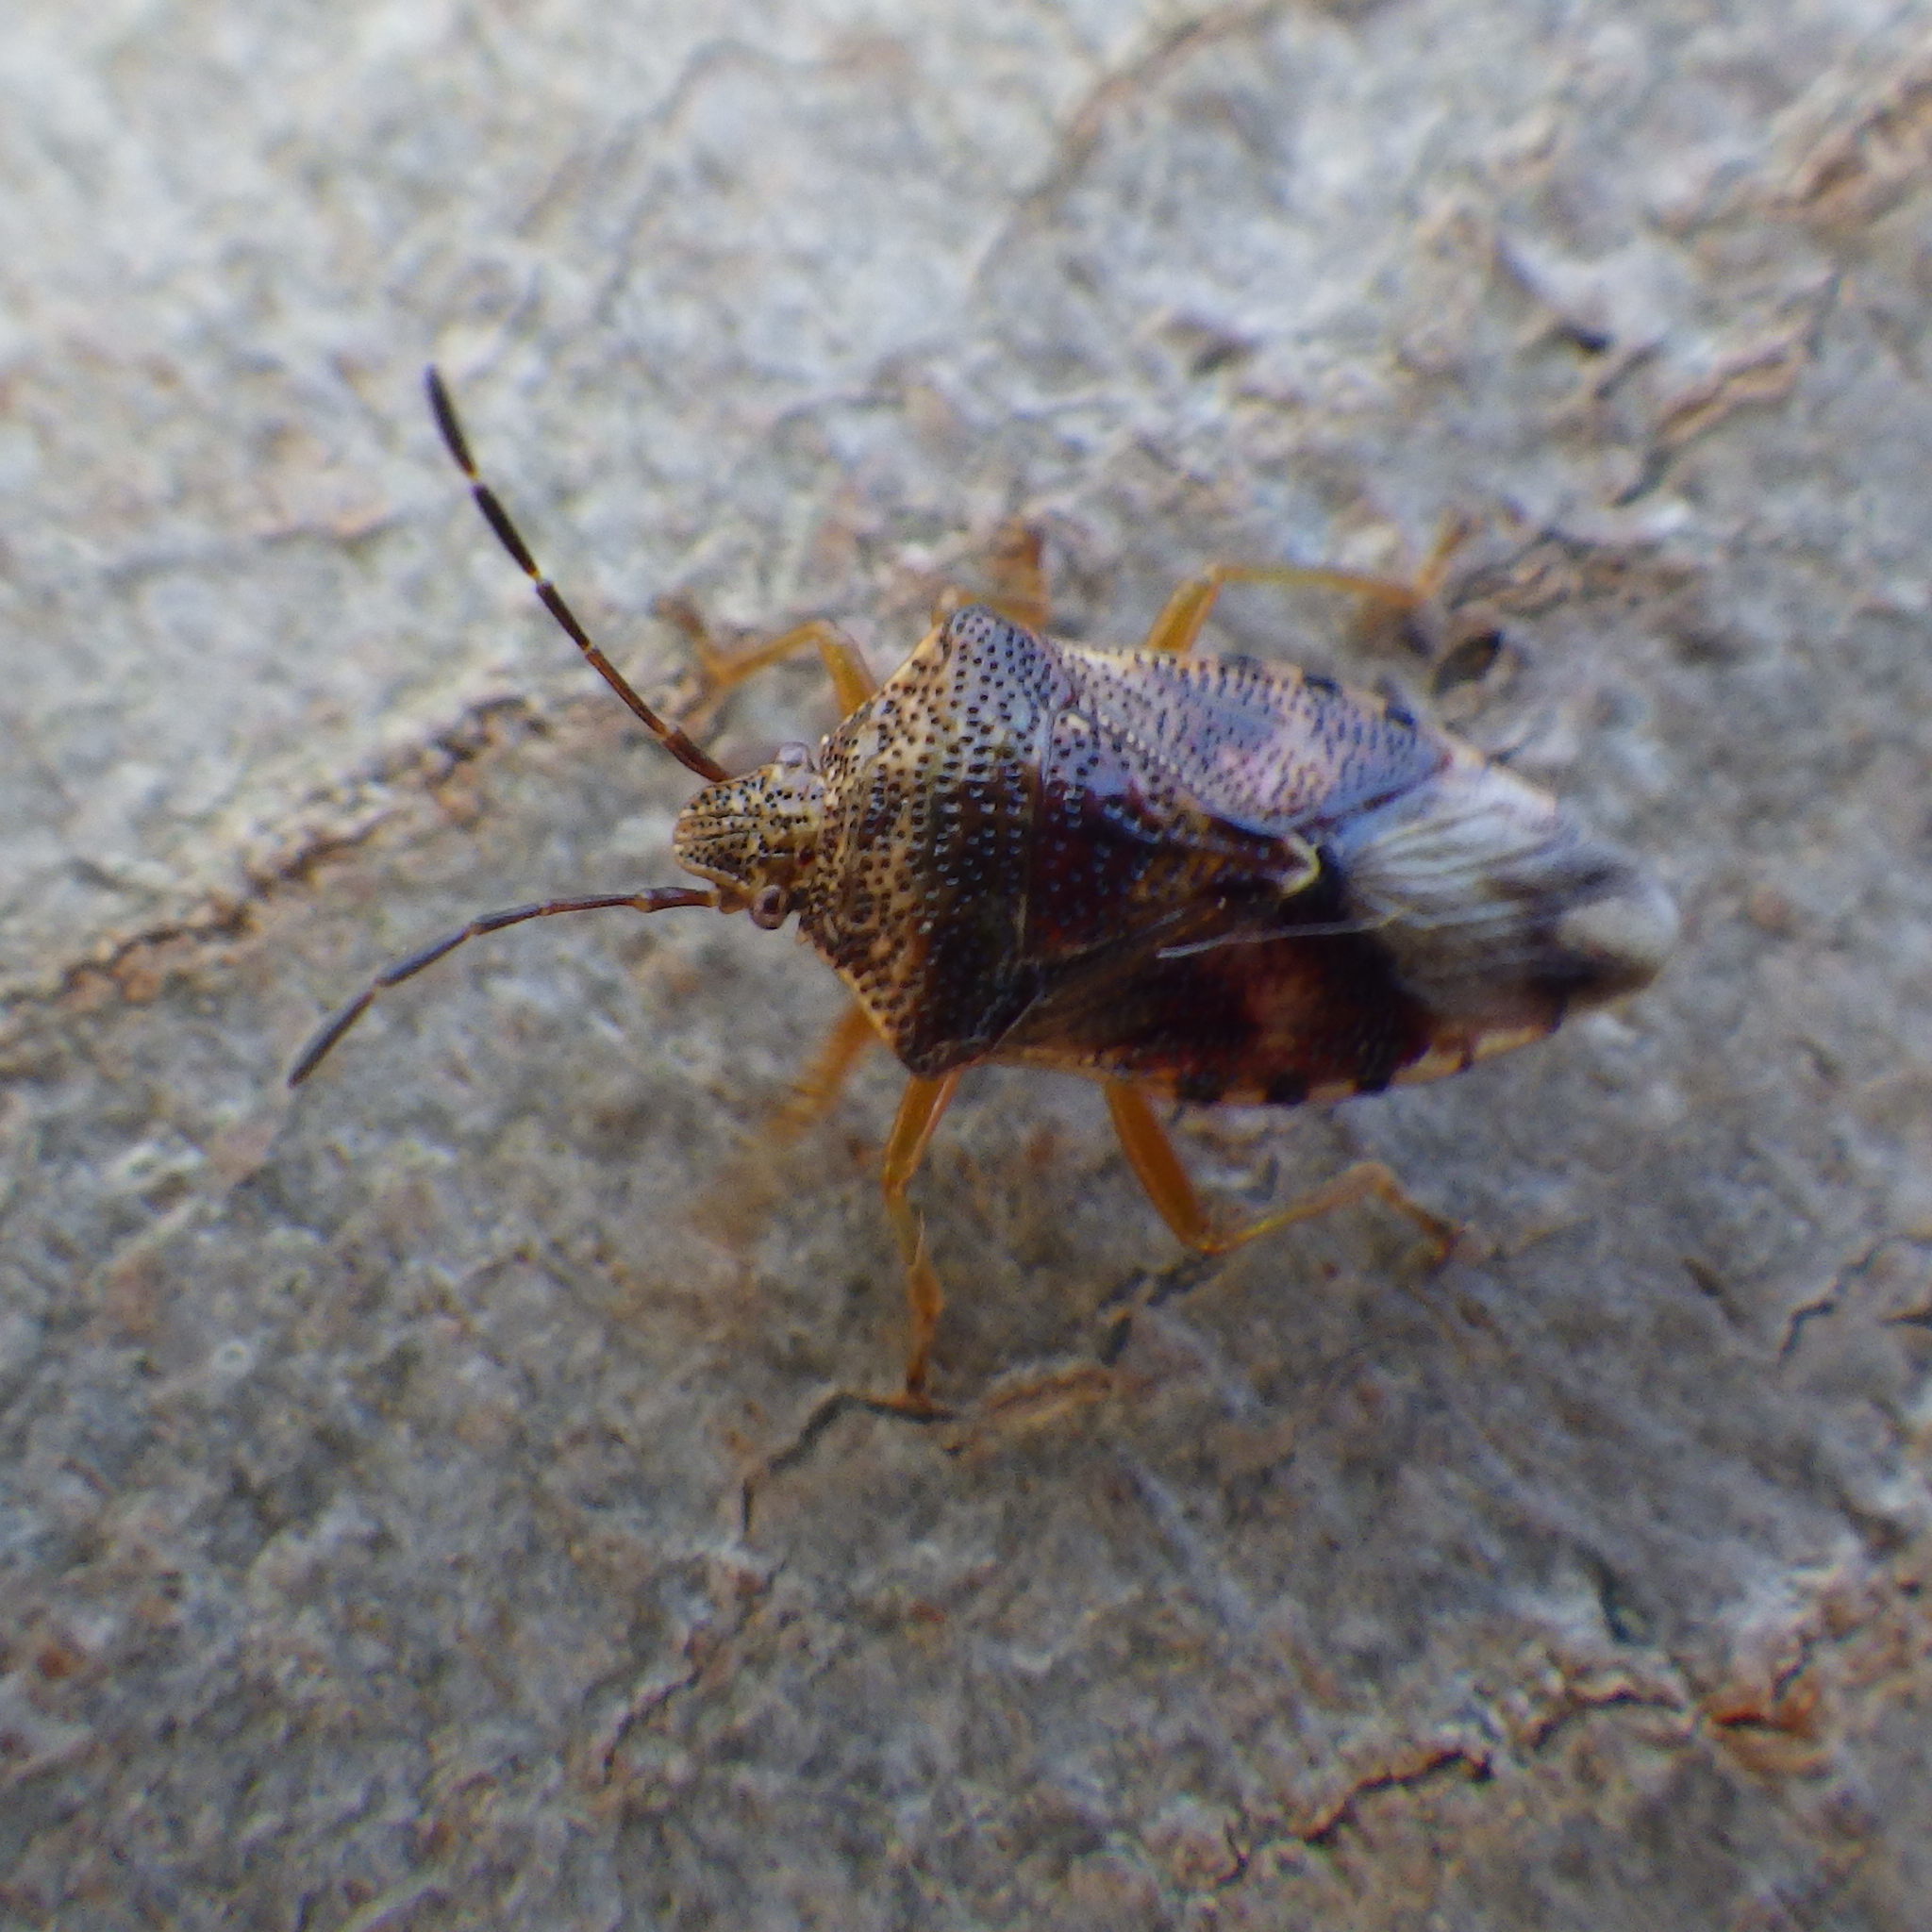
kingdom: Animalia
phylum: Arthropoda
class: Insecta
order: Hemiptera
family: Acanthosomatidae
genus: Elasmucha
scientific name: Elasmucha lateralis
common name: Shield bug
